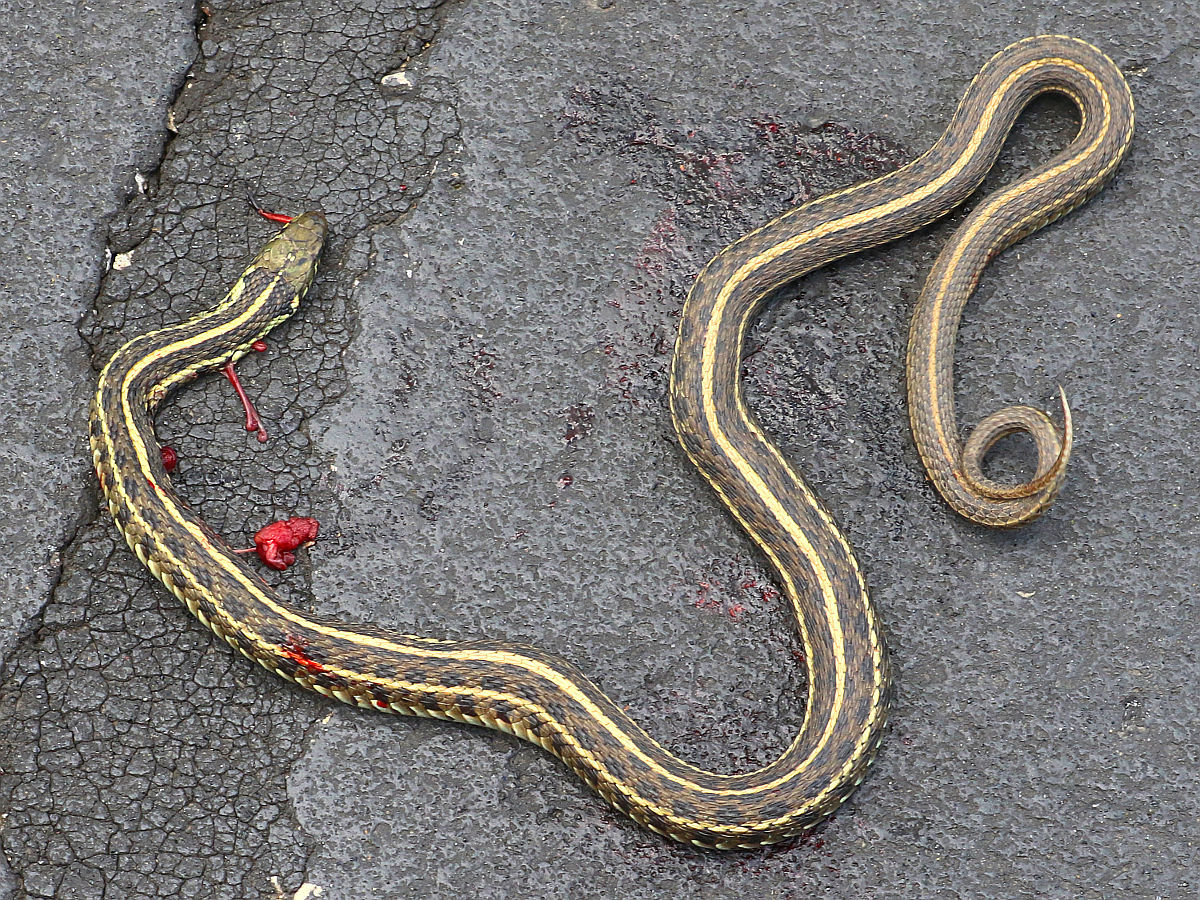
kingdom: Animalia
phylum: Chordata
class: Squamata
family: Colubridae
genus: Thamnophis
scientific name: Thamnophis radix
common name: Plains garter snake
